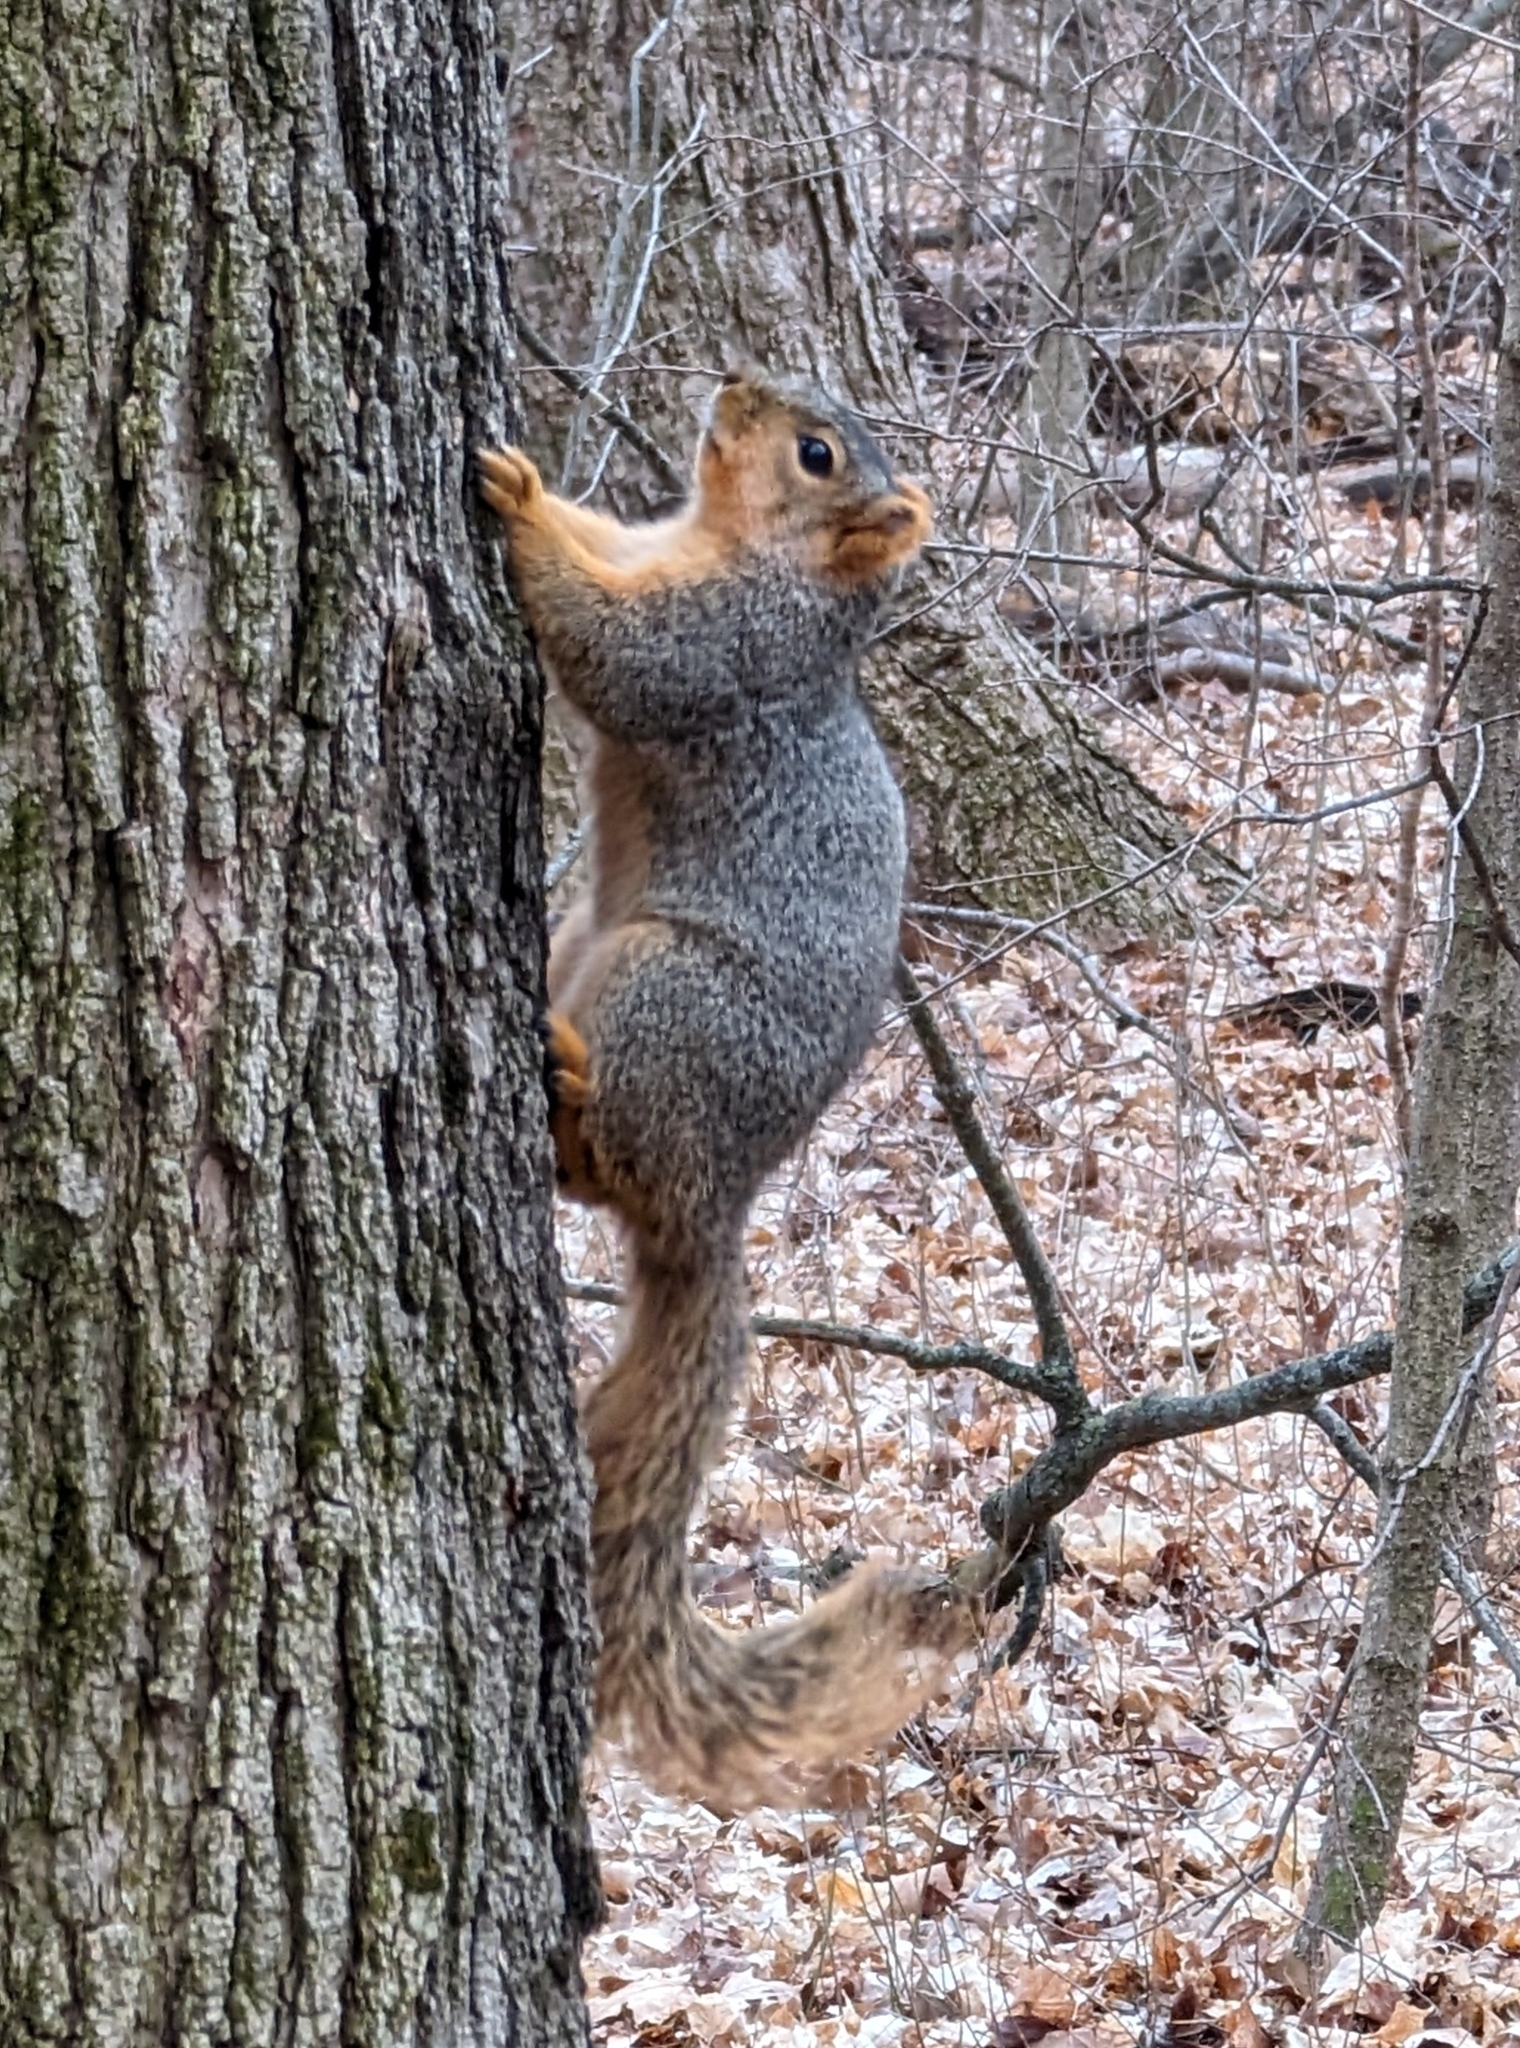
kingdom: Animalia
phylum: Chordata
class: Mammalia
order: Rodentia
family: Sciuridae
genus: Sciurus
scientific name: Sciurus niger
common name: Fox squirrel
